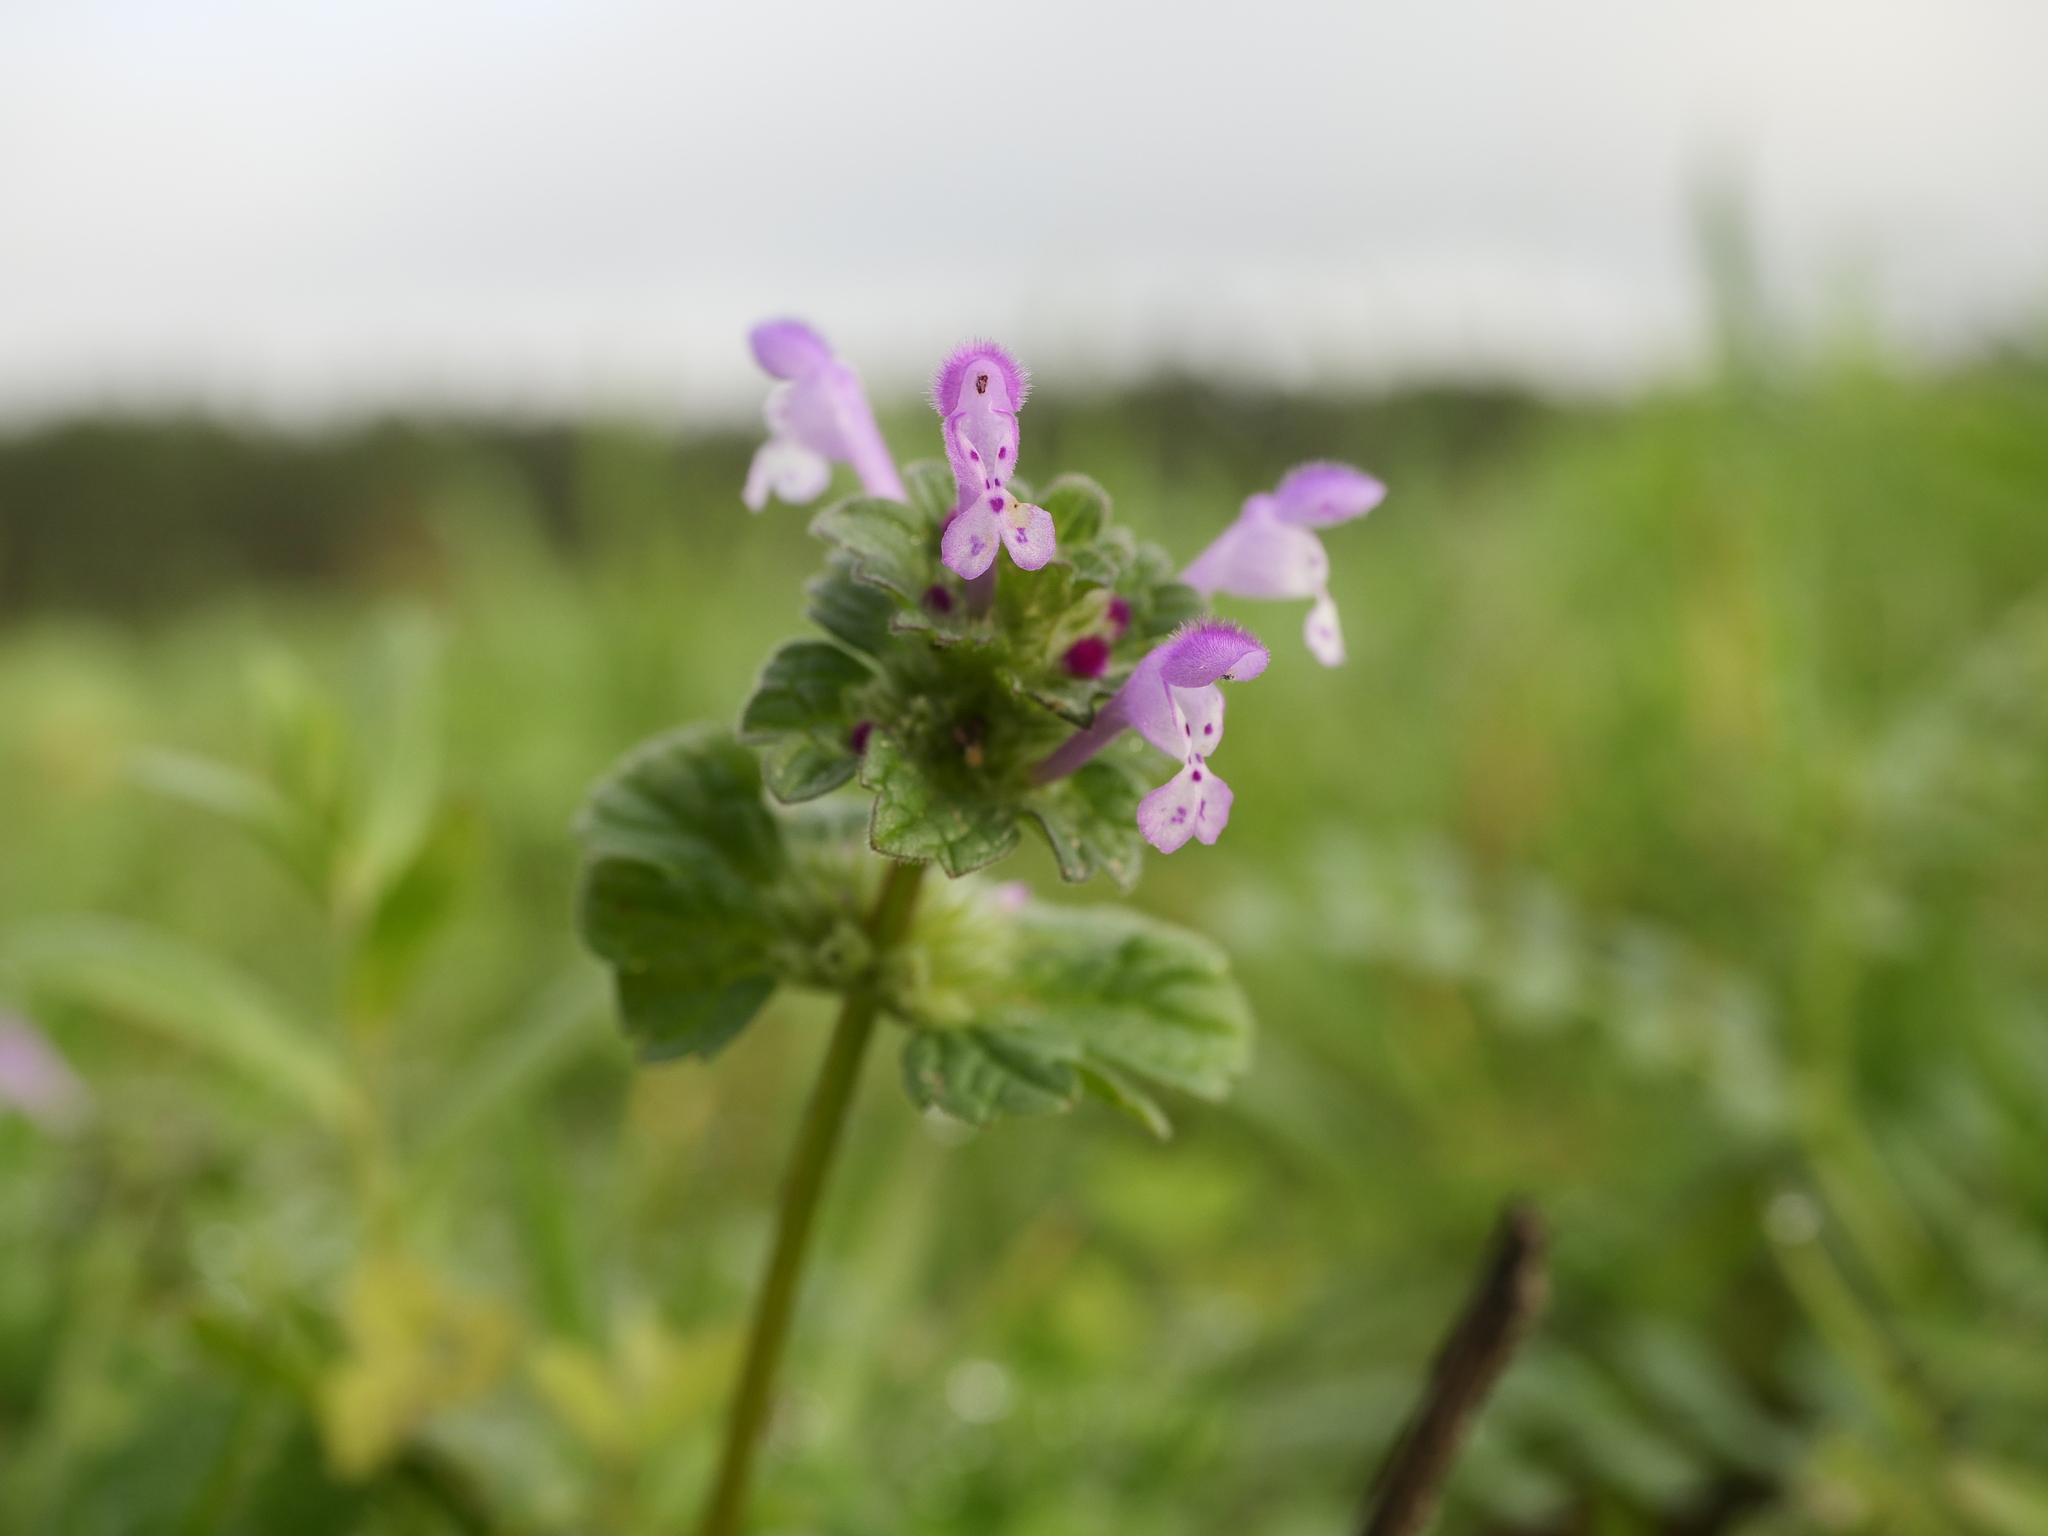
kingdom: Plantae
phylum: Tracheophyta
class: Magnoliopsida
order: Lamiales
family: Lamiaceae
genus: Lamium
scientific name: Lamium amplexicaule
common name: Henbit dead-nettle
